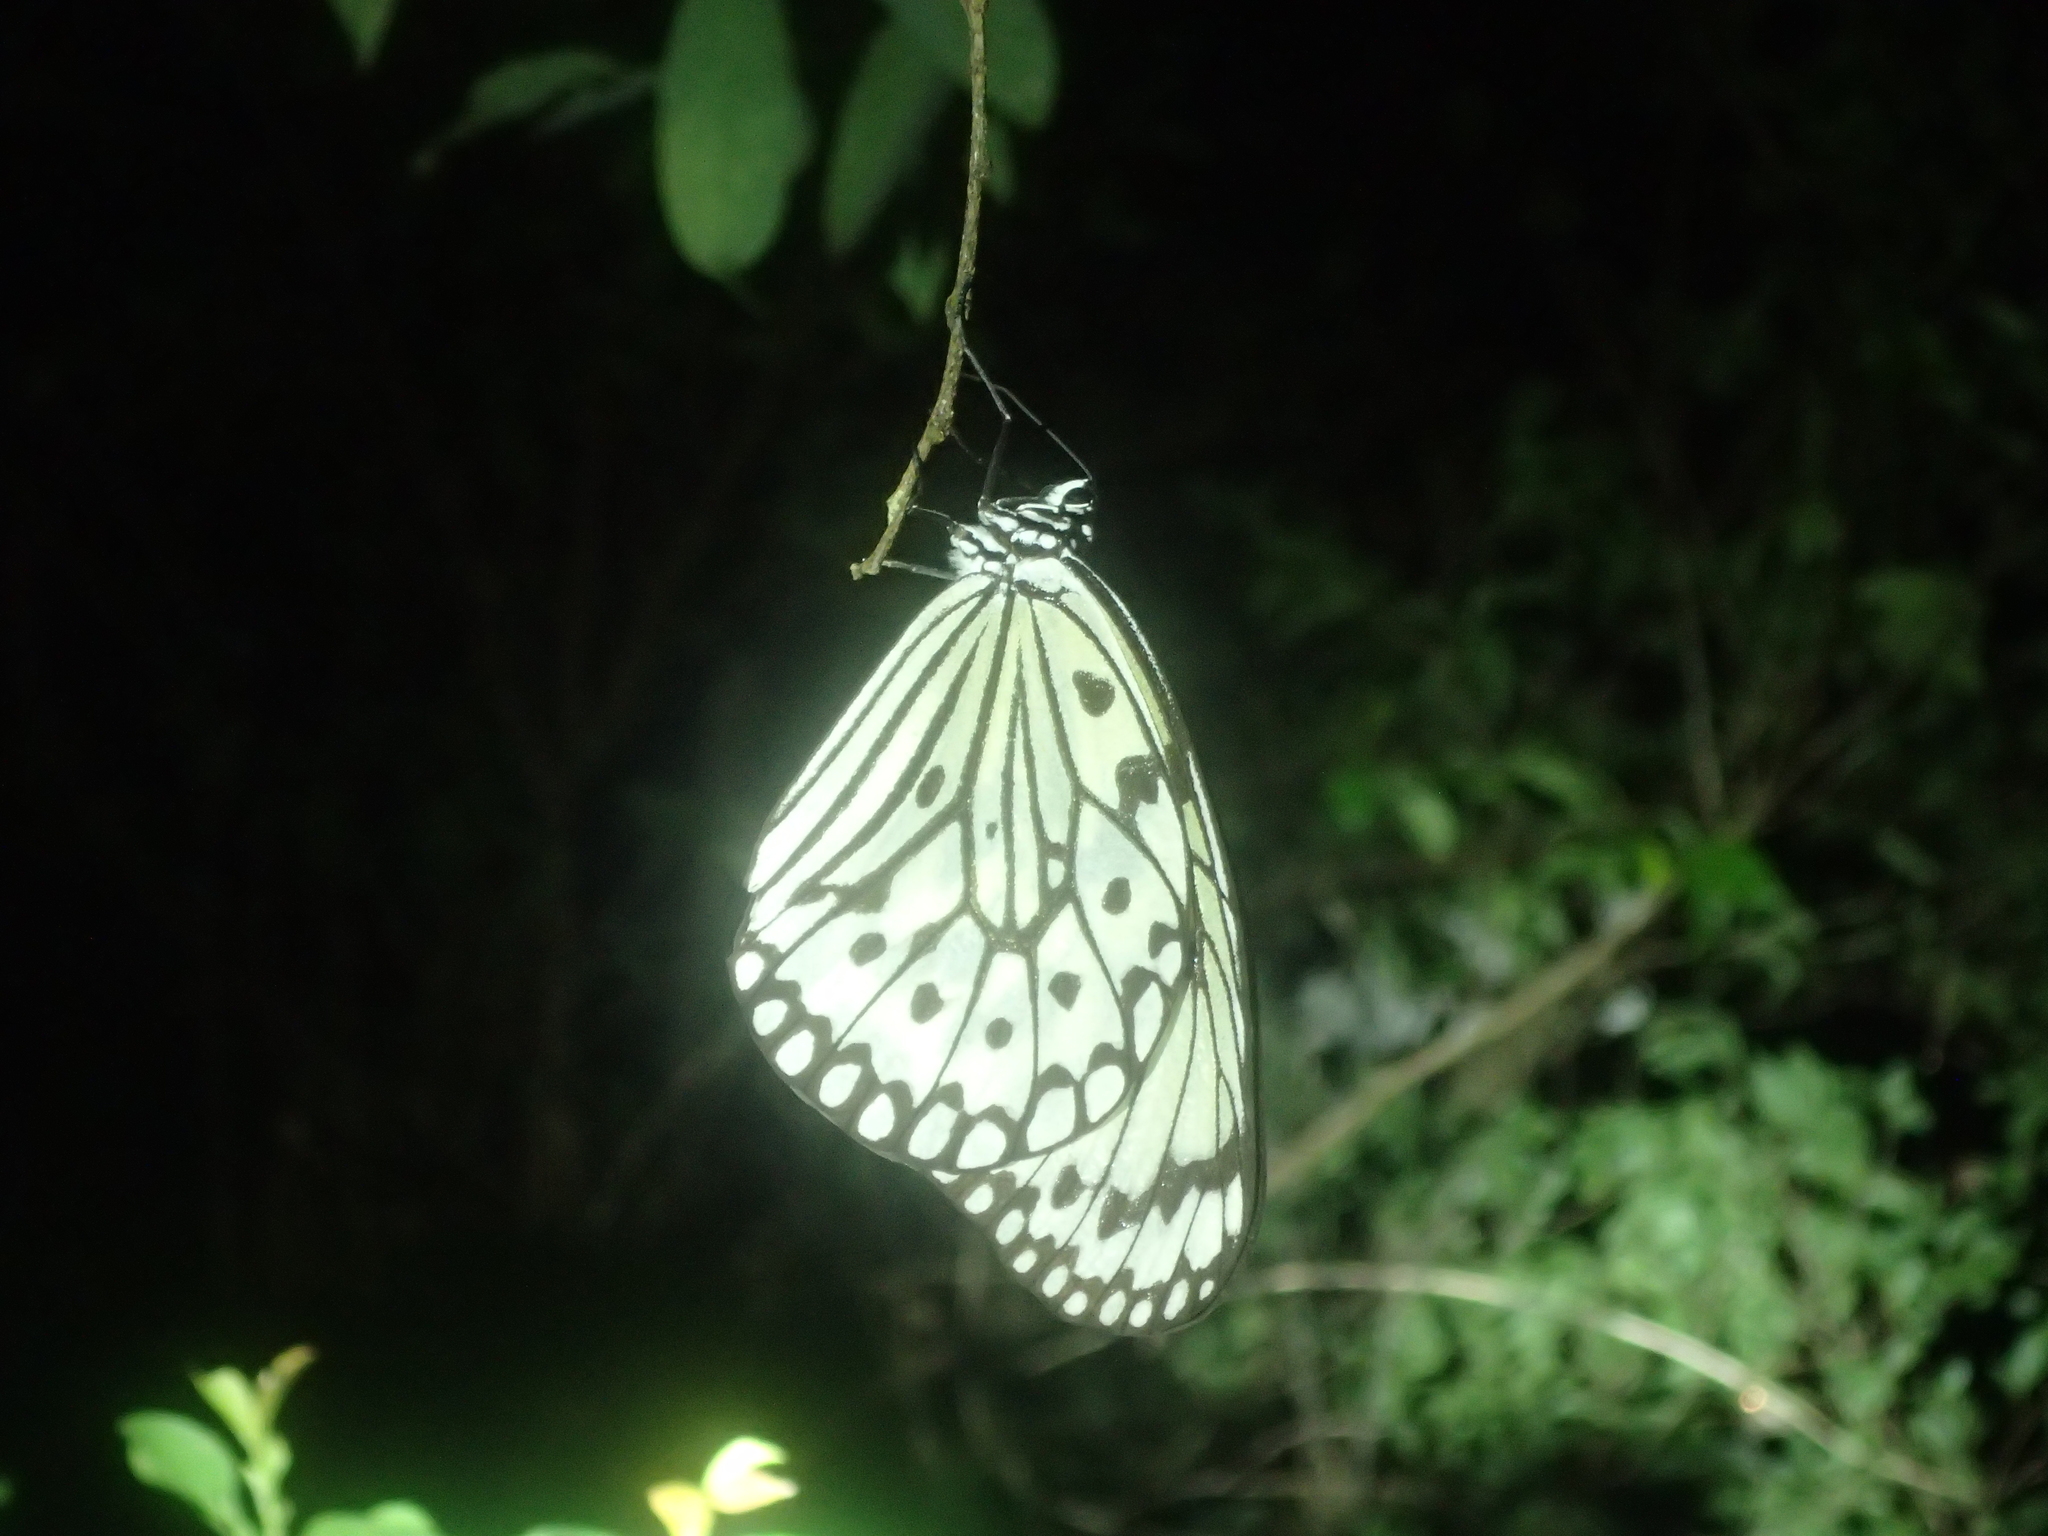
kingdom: Animalia
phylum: Arthropoda
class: Insecta
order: Lepidoptera
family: Nymphalidae
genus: Idea
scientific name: Idea leuconoe
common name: Rice paper butterfly
